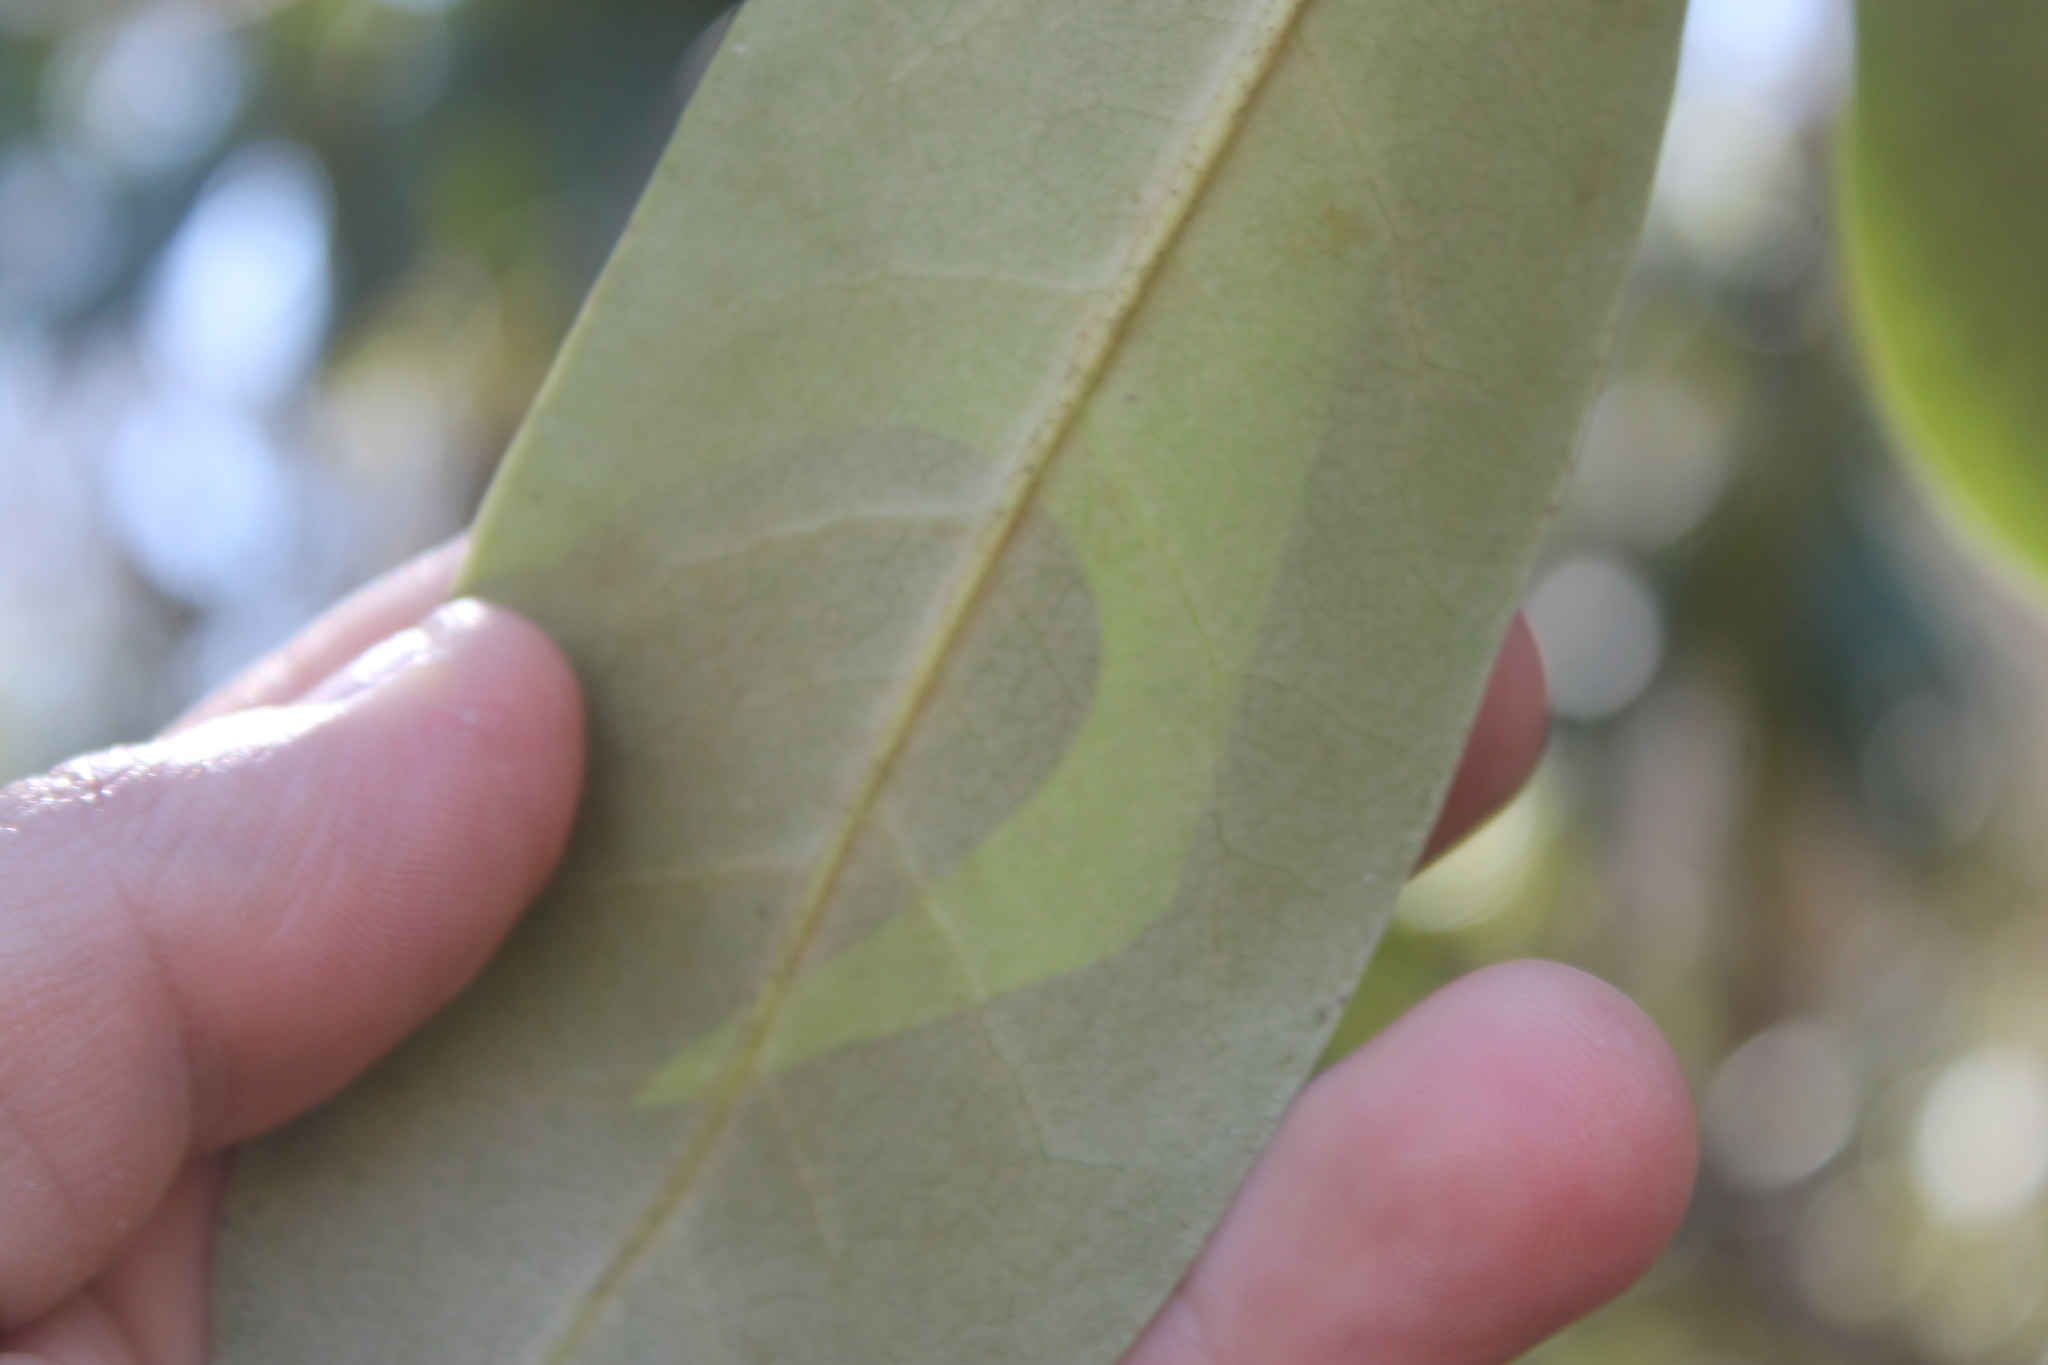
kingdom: Plantae
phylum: Tracheophyta
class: Magnoliopsida
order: Ericales
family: Ericaceae
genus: Rhododendron
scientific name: Rhododendron maximum
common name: Great rhododendron
